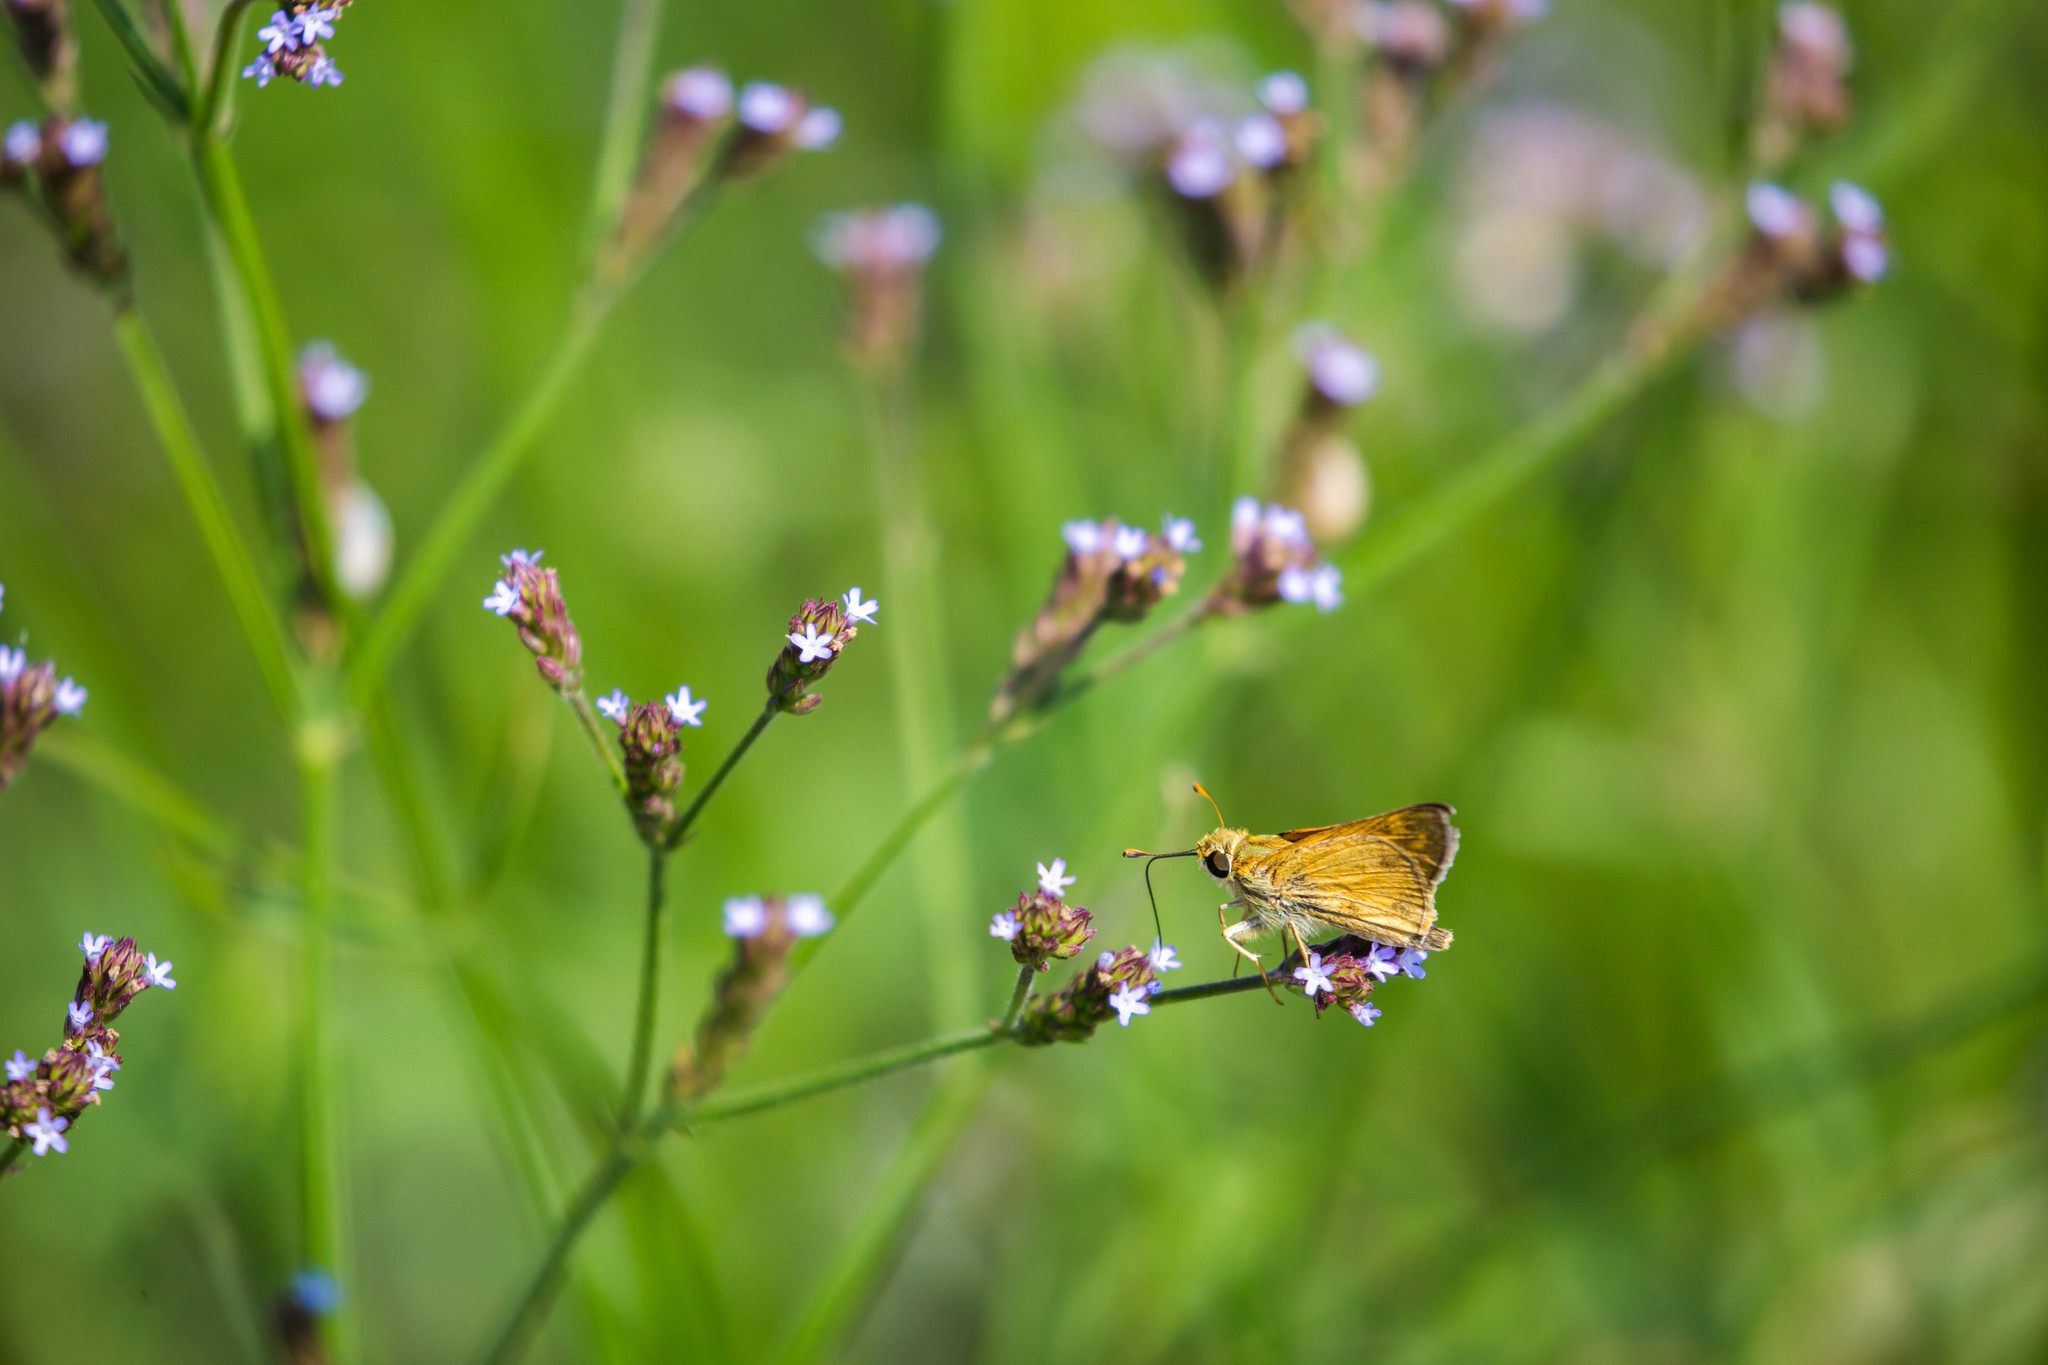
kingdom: Animalia
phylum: Arthropoda
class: Insecta
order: Lepidoptera
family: Hesperiidae
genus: Atalopedes
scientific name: Atalopedes
